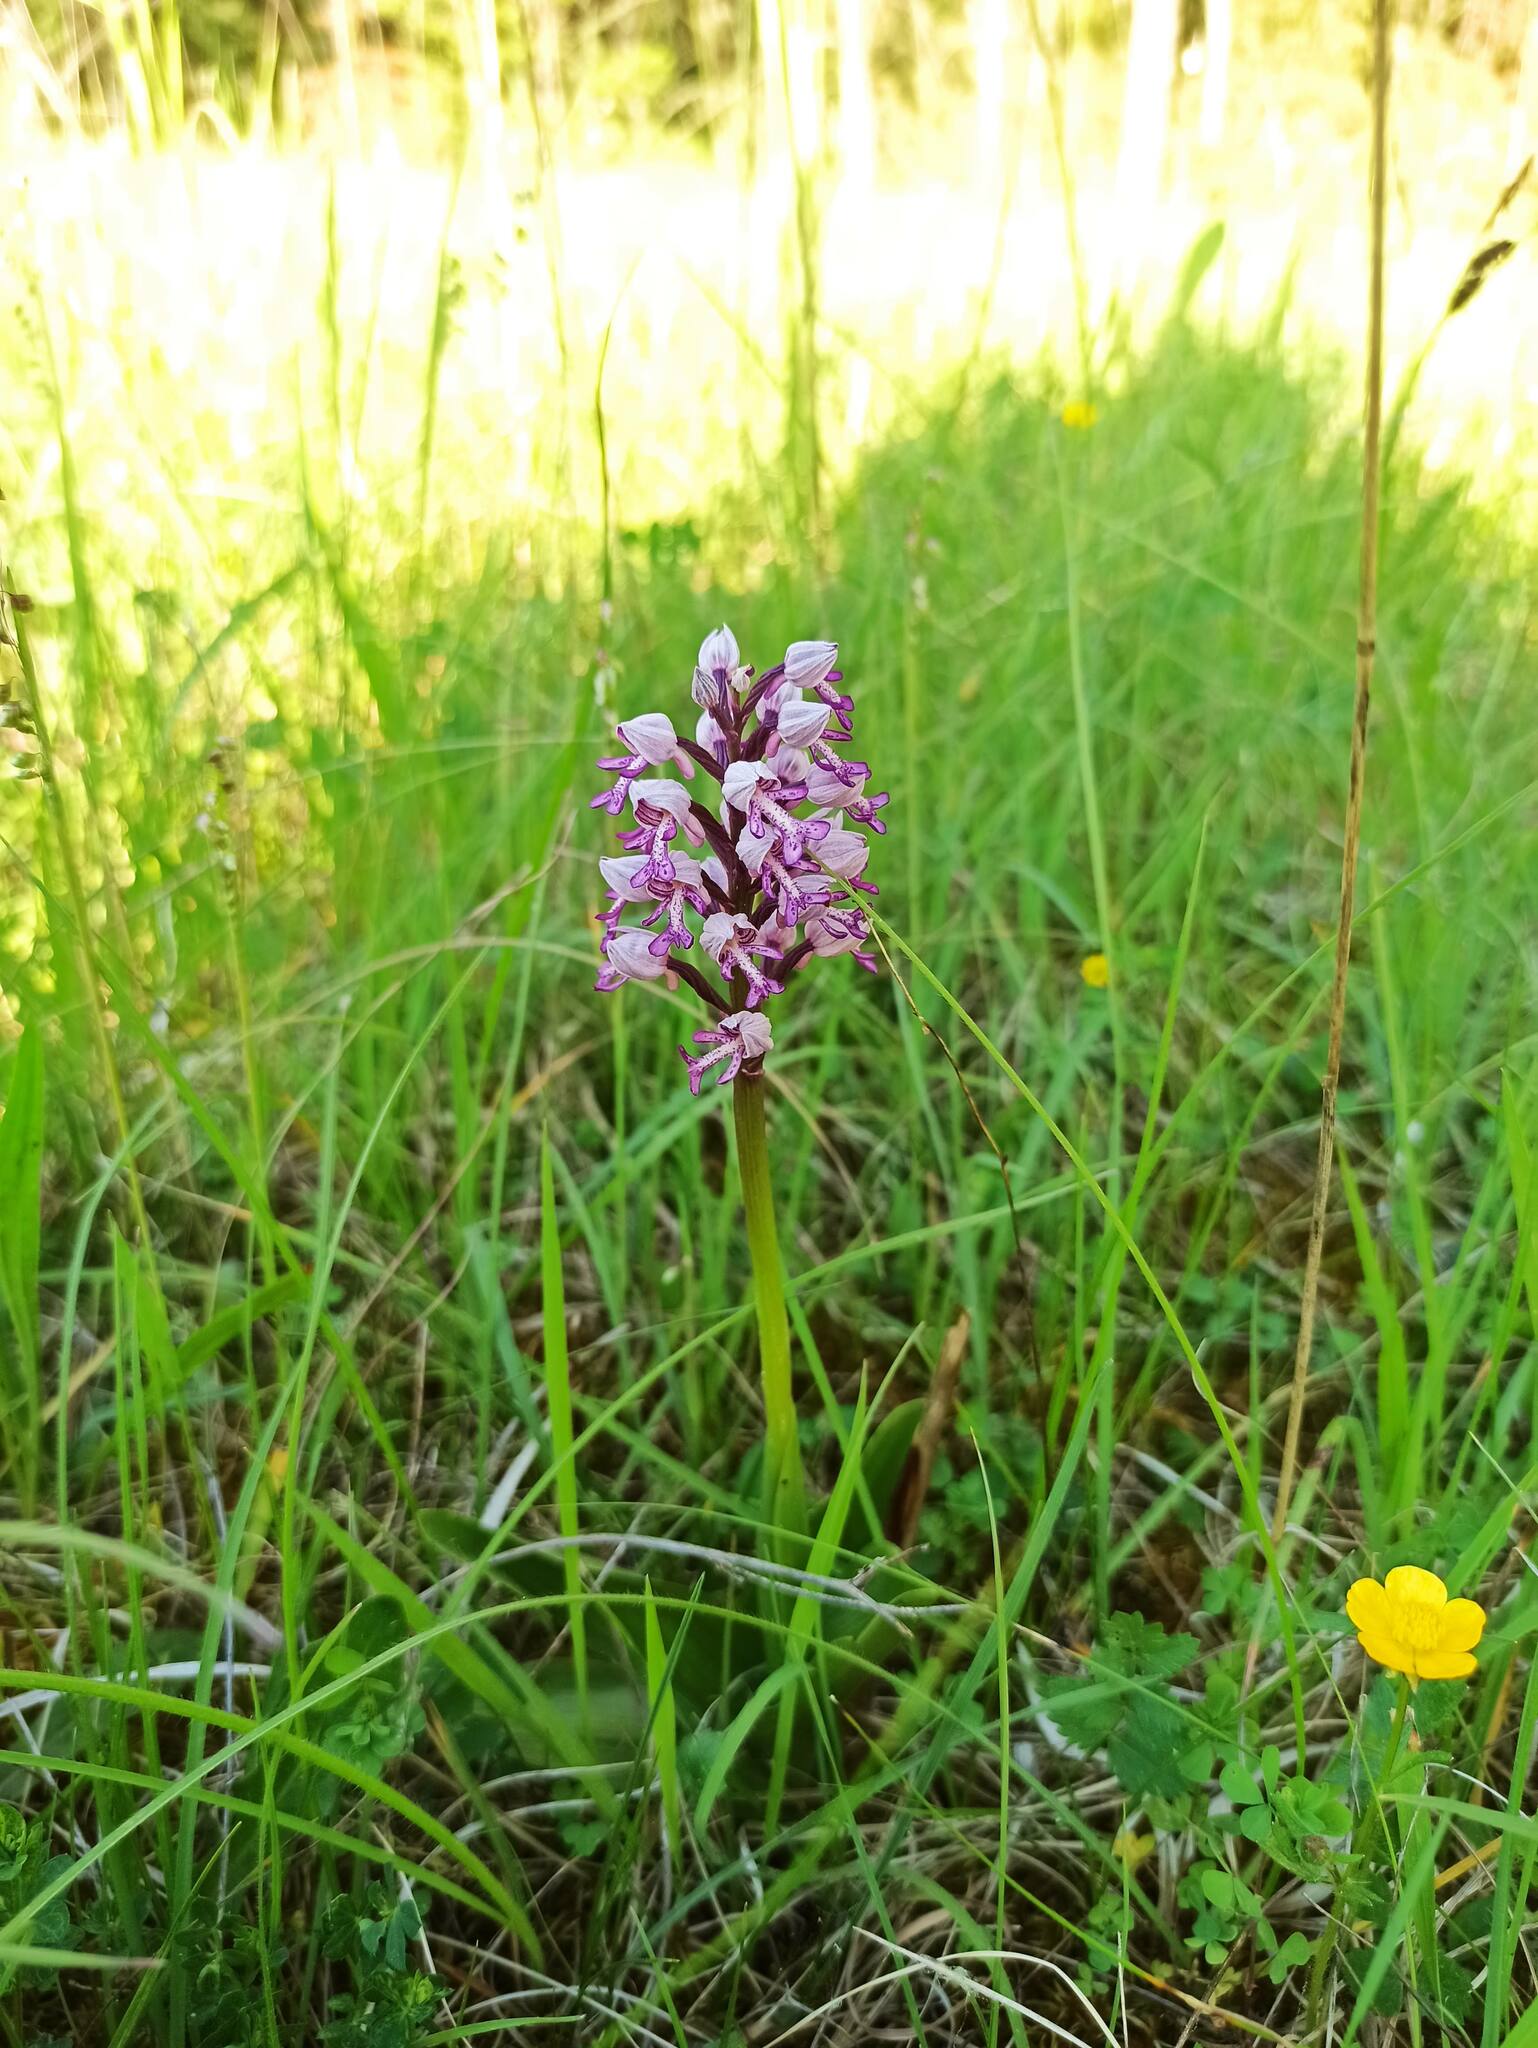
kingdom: Plantae
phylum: Tracheophyta
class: Liliopsida
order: Asparagales
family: Orchidaceae
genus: Orchis
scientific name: Orchis militaris
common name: Military orchid
